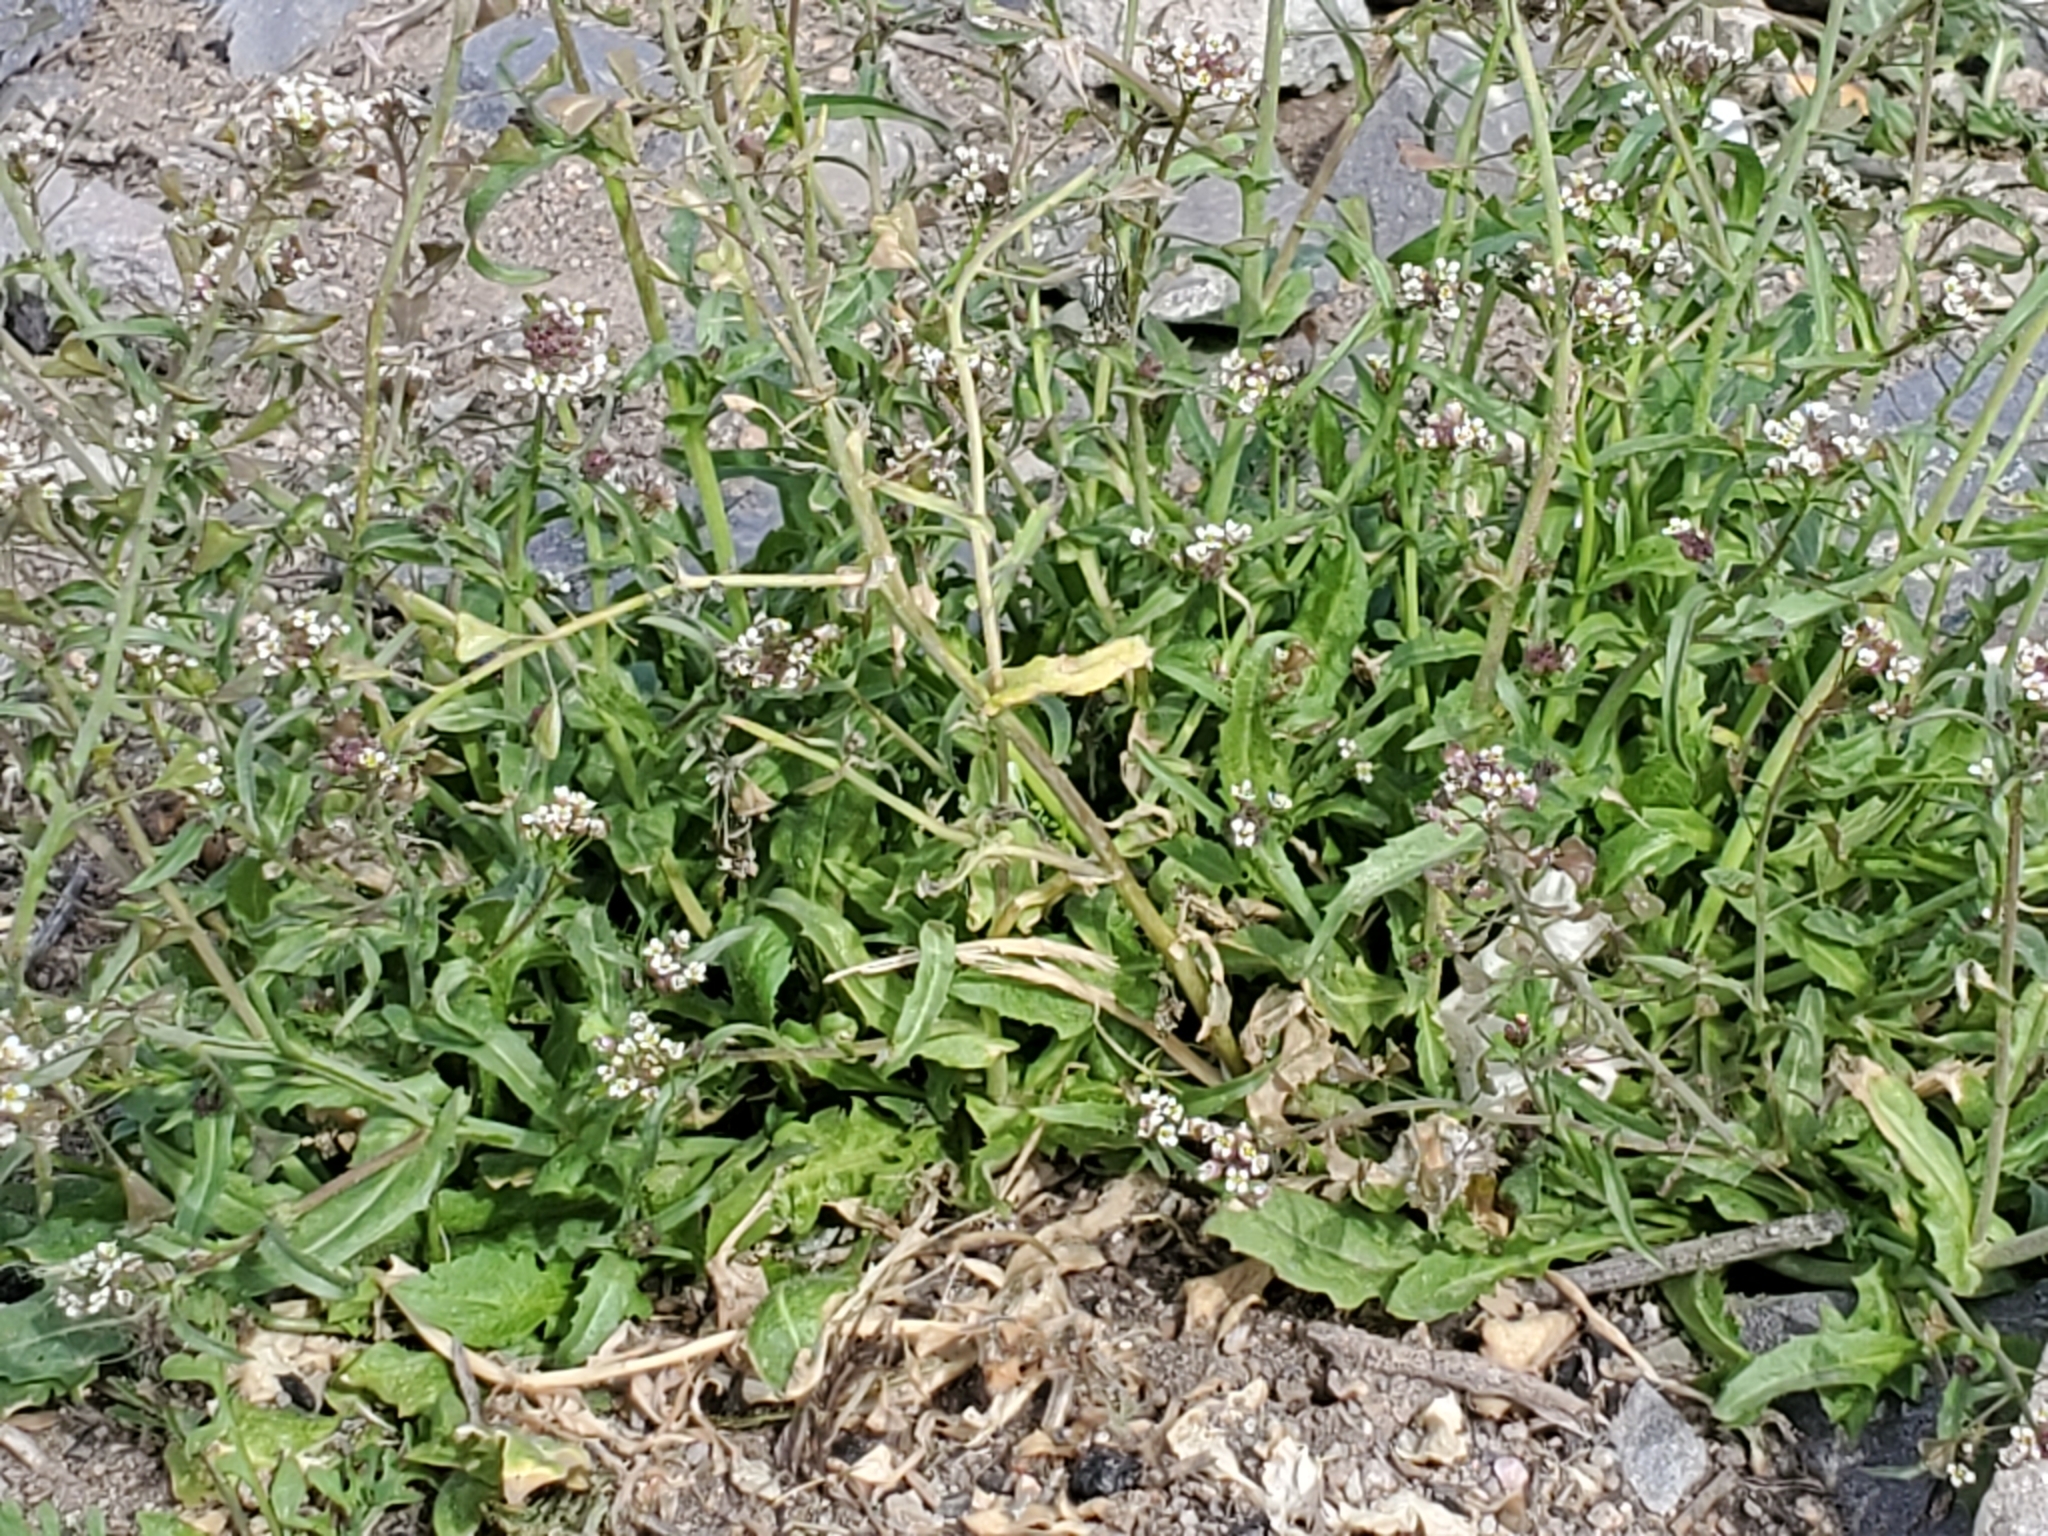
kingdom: Plantae
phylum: Tracheophyta
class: Magnoliopsida
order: Brassicales
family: Brassicaceae
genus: Capsella
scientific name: Capsella bursa-pastoris
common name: Shepherd's purse
